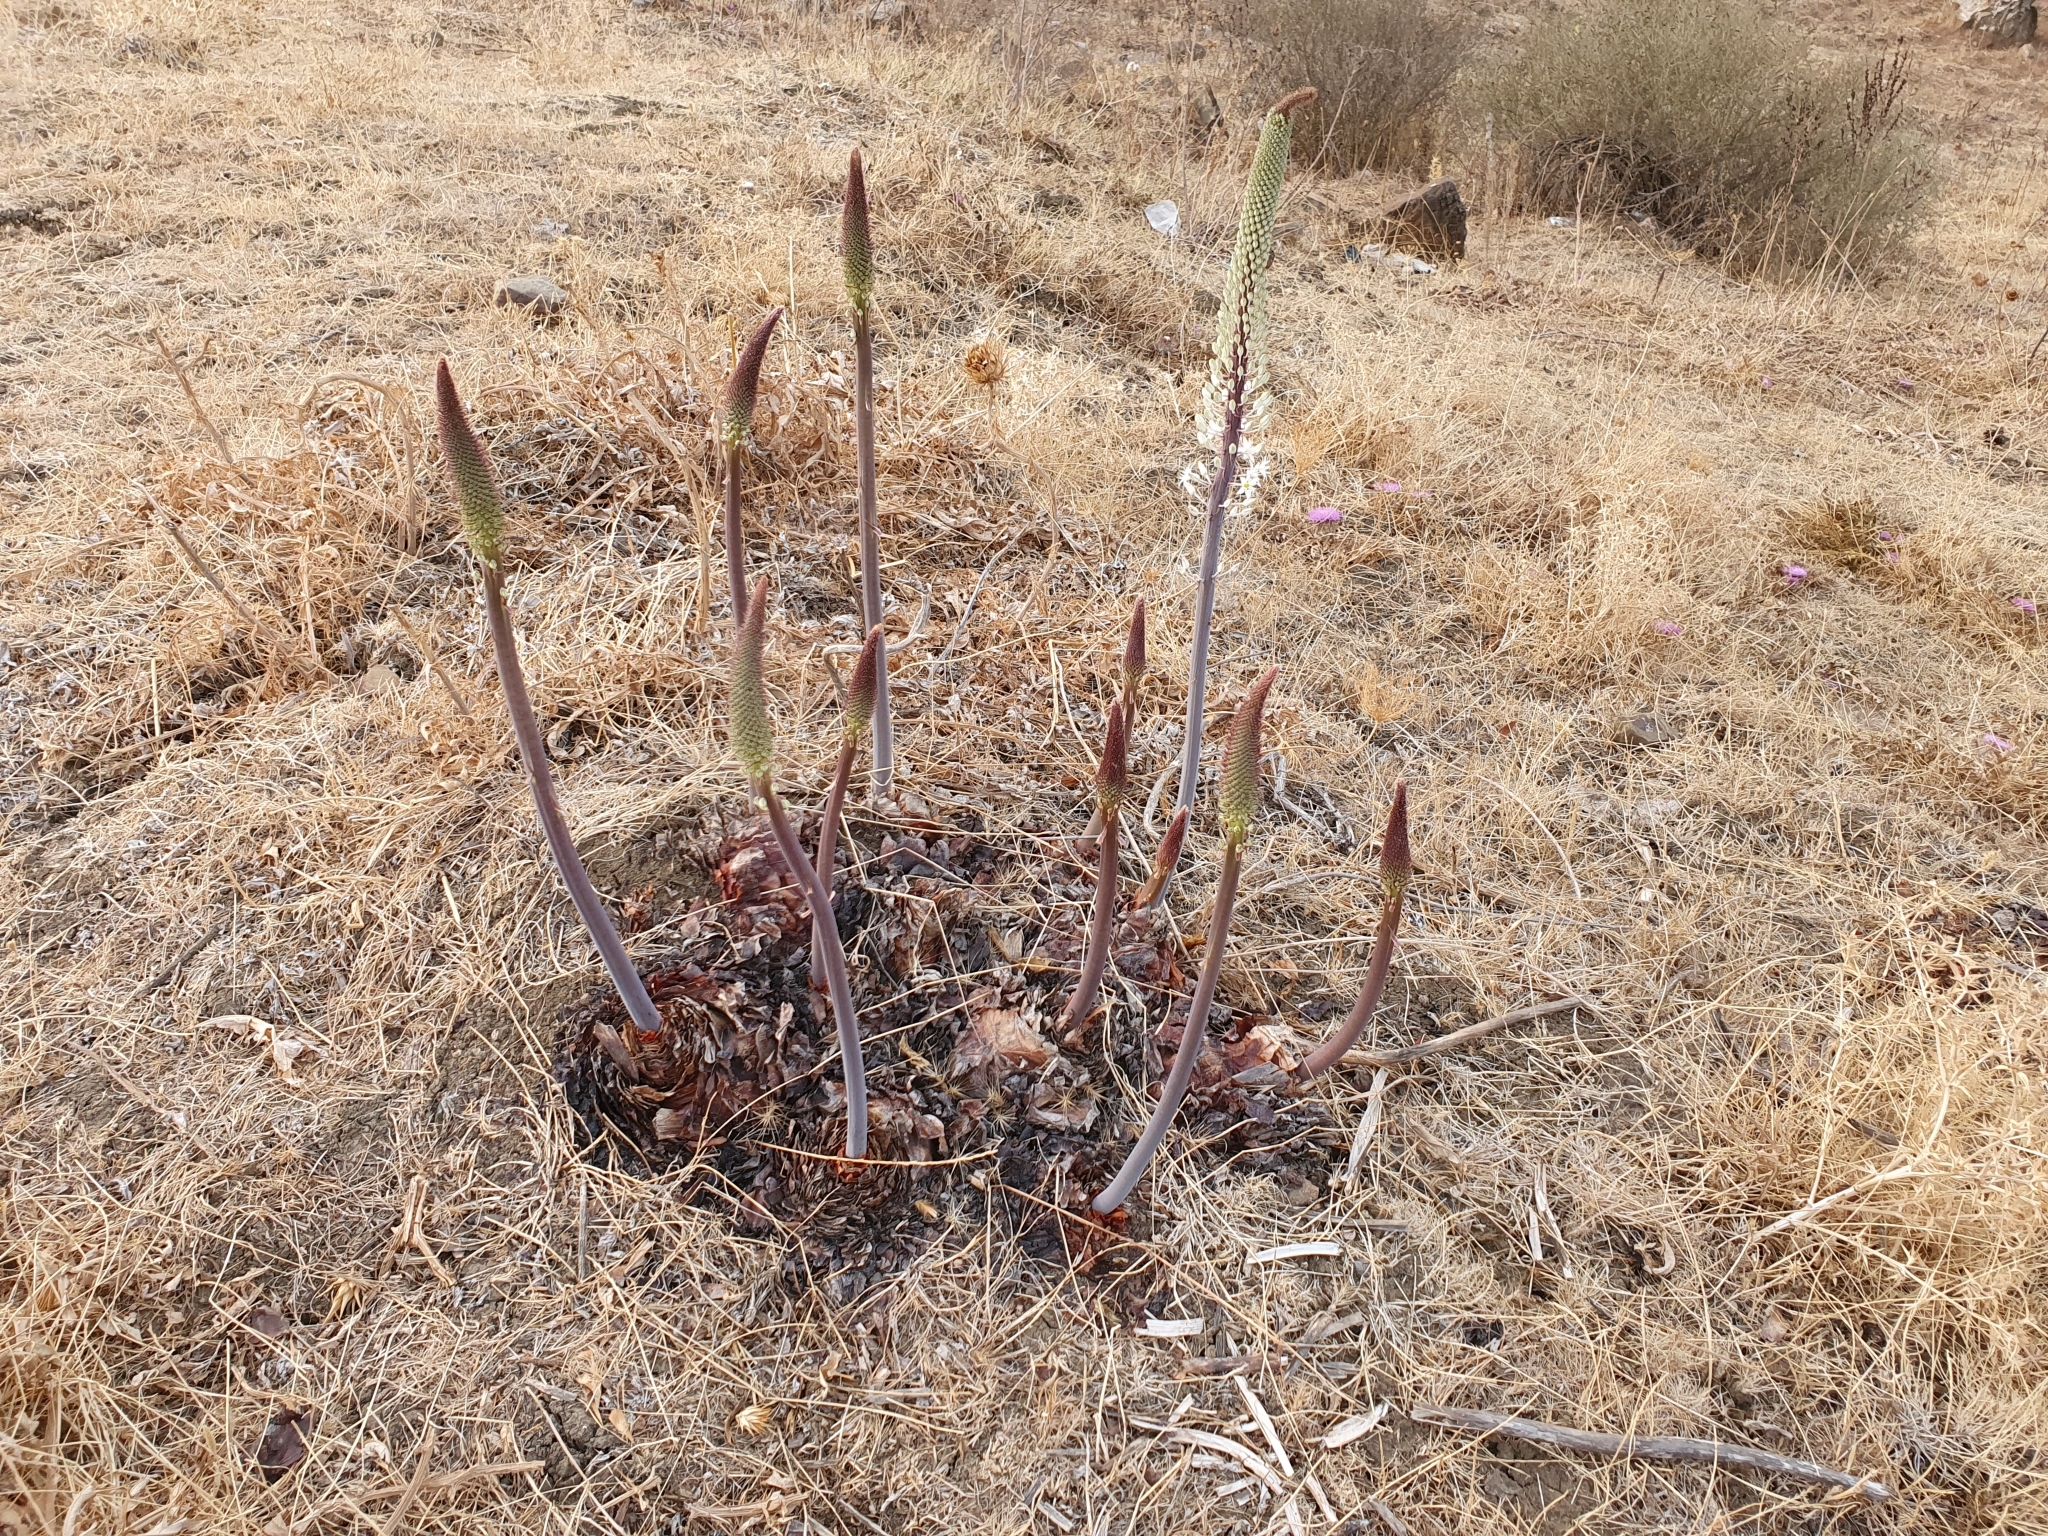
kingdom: Plantae
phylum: Tracheophyta
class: Liliopsida
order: Asparagales
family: Asparagaceae
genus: Drimia
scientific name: Drimia numidica
